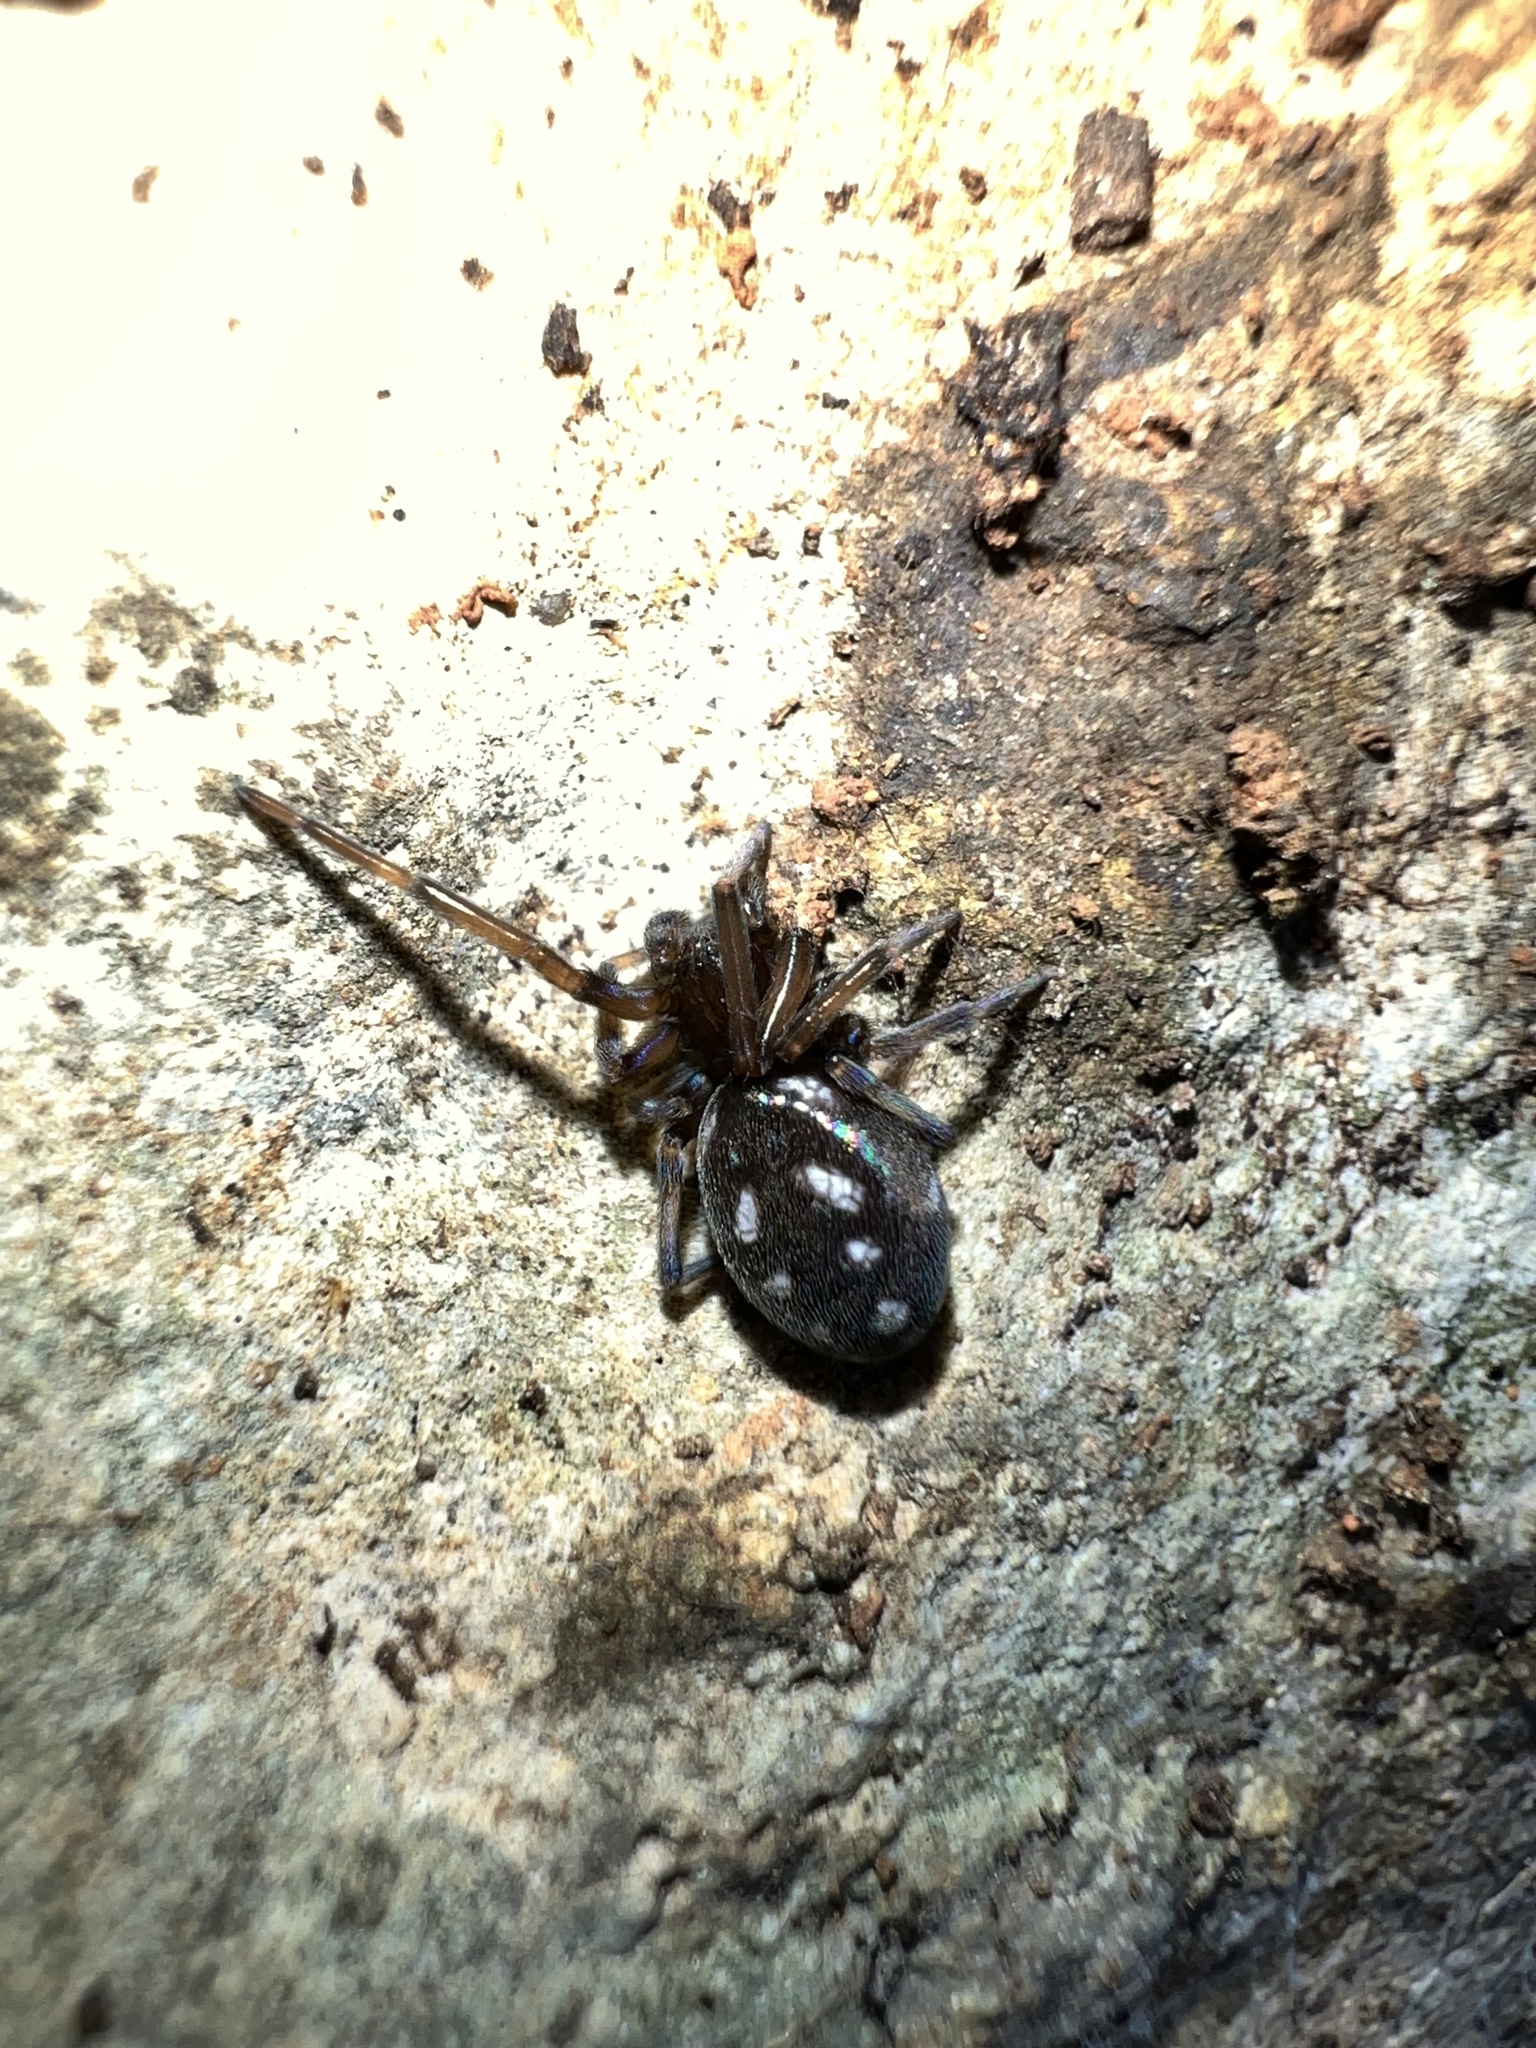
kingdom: Animalia
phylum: Arthropoda
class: Arachnida
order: Araneae
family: Titanoecidae
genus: Nurscia
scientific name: Nurscia albomaculata
